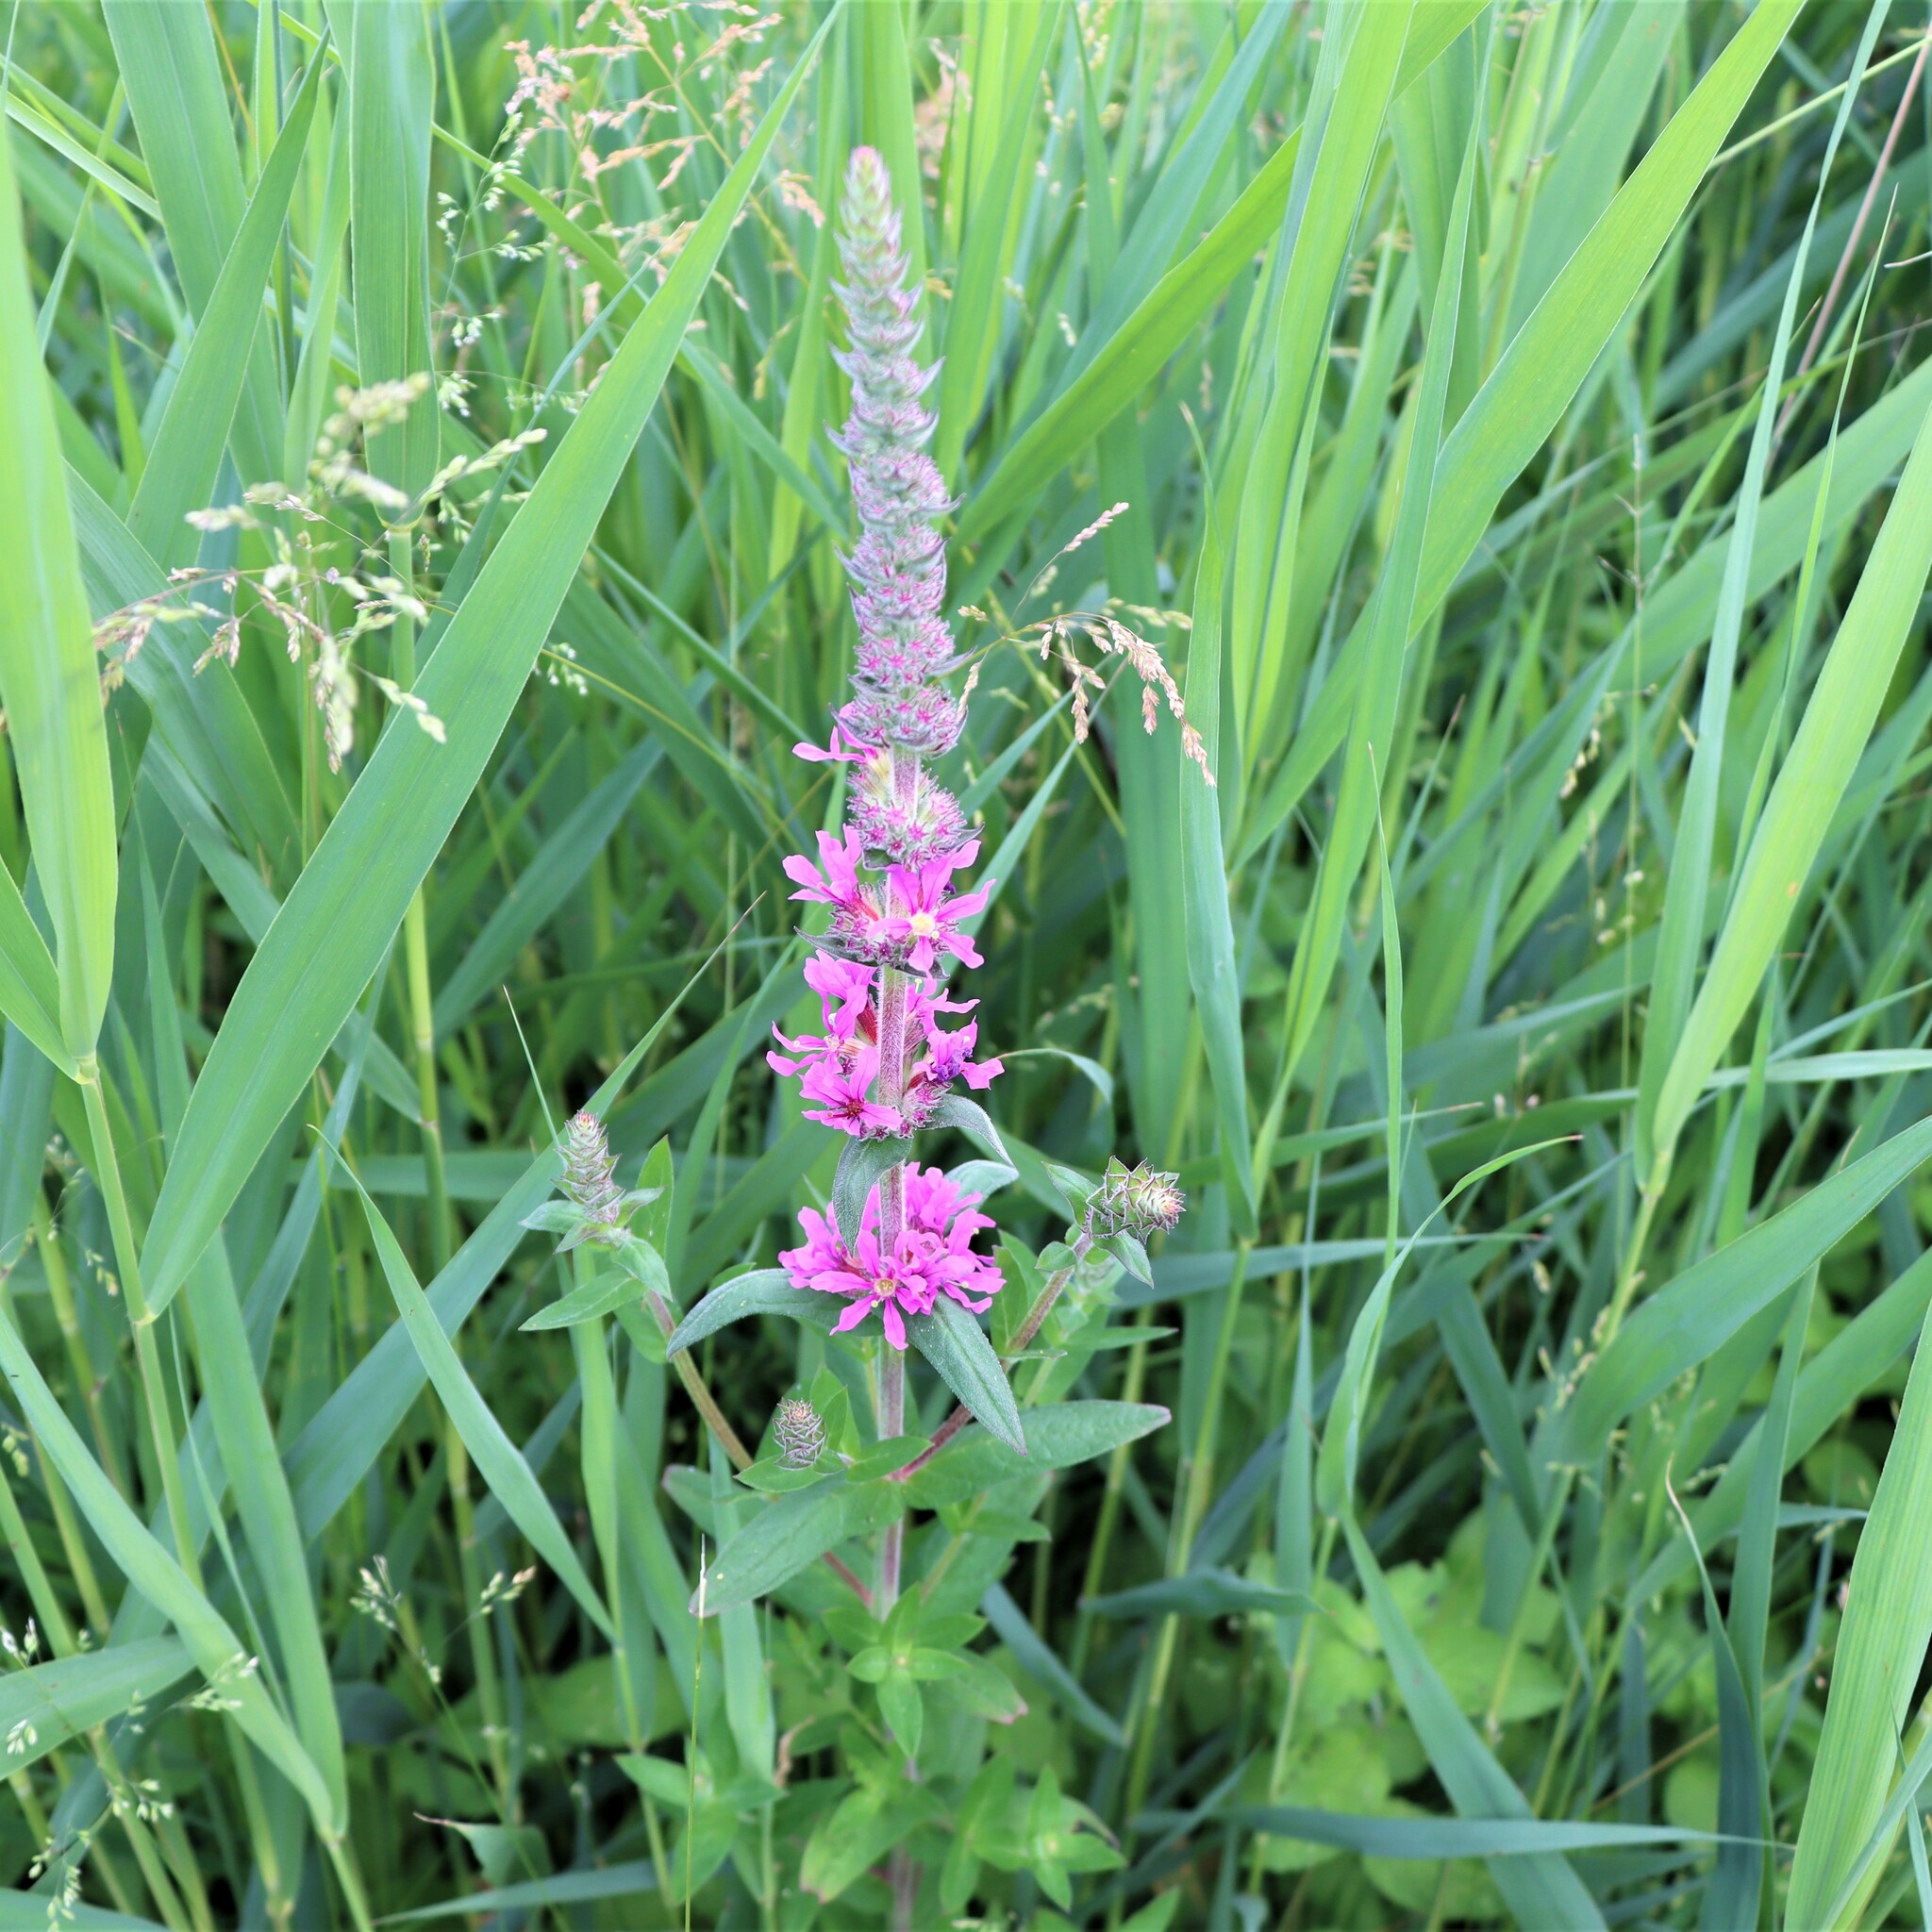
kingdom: Plantae
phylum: Tracheophyta
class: Magnoliopsida
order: Myrtales
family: Lythraceae
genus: Lythrum
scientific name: Lythrum salicaria
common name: Purple loosestrife
